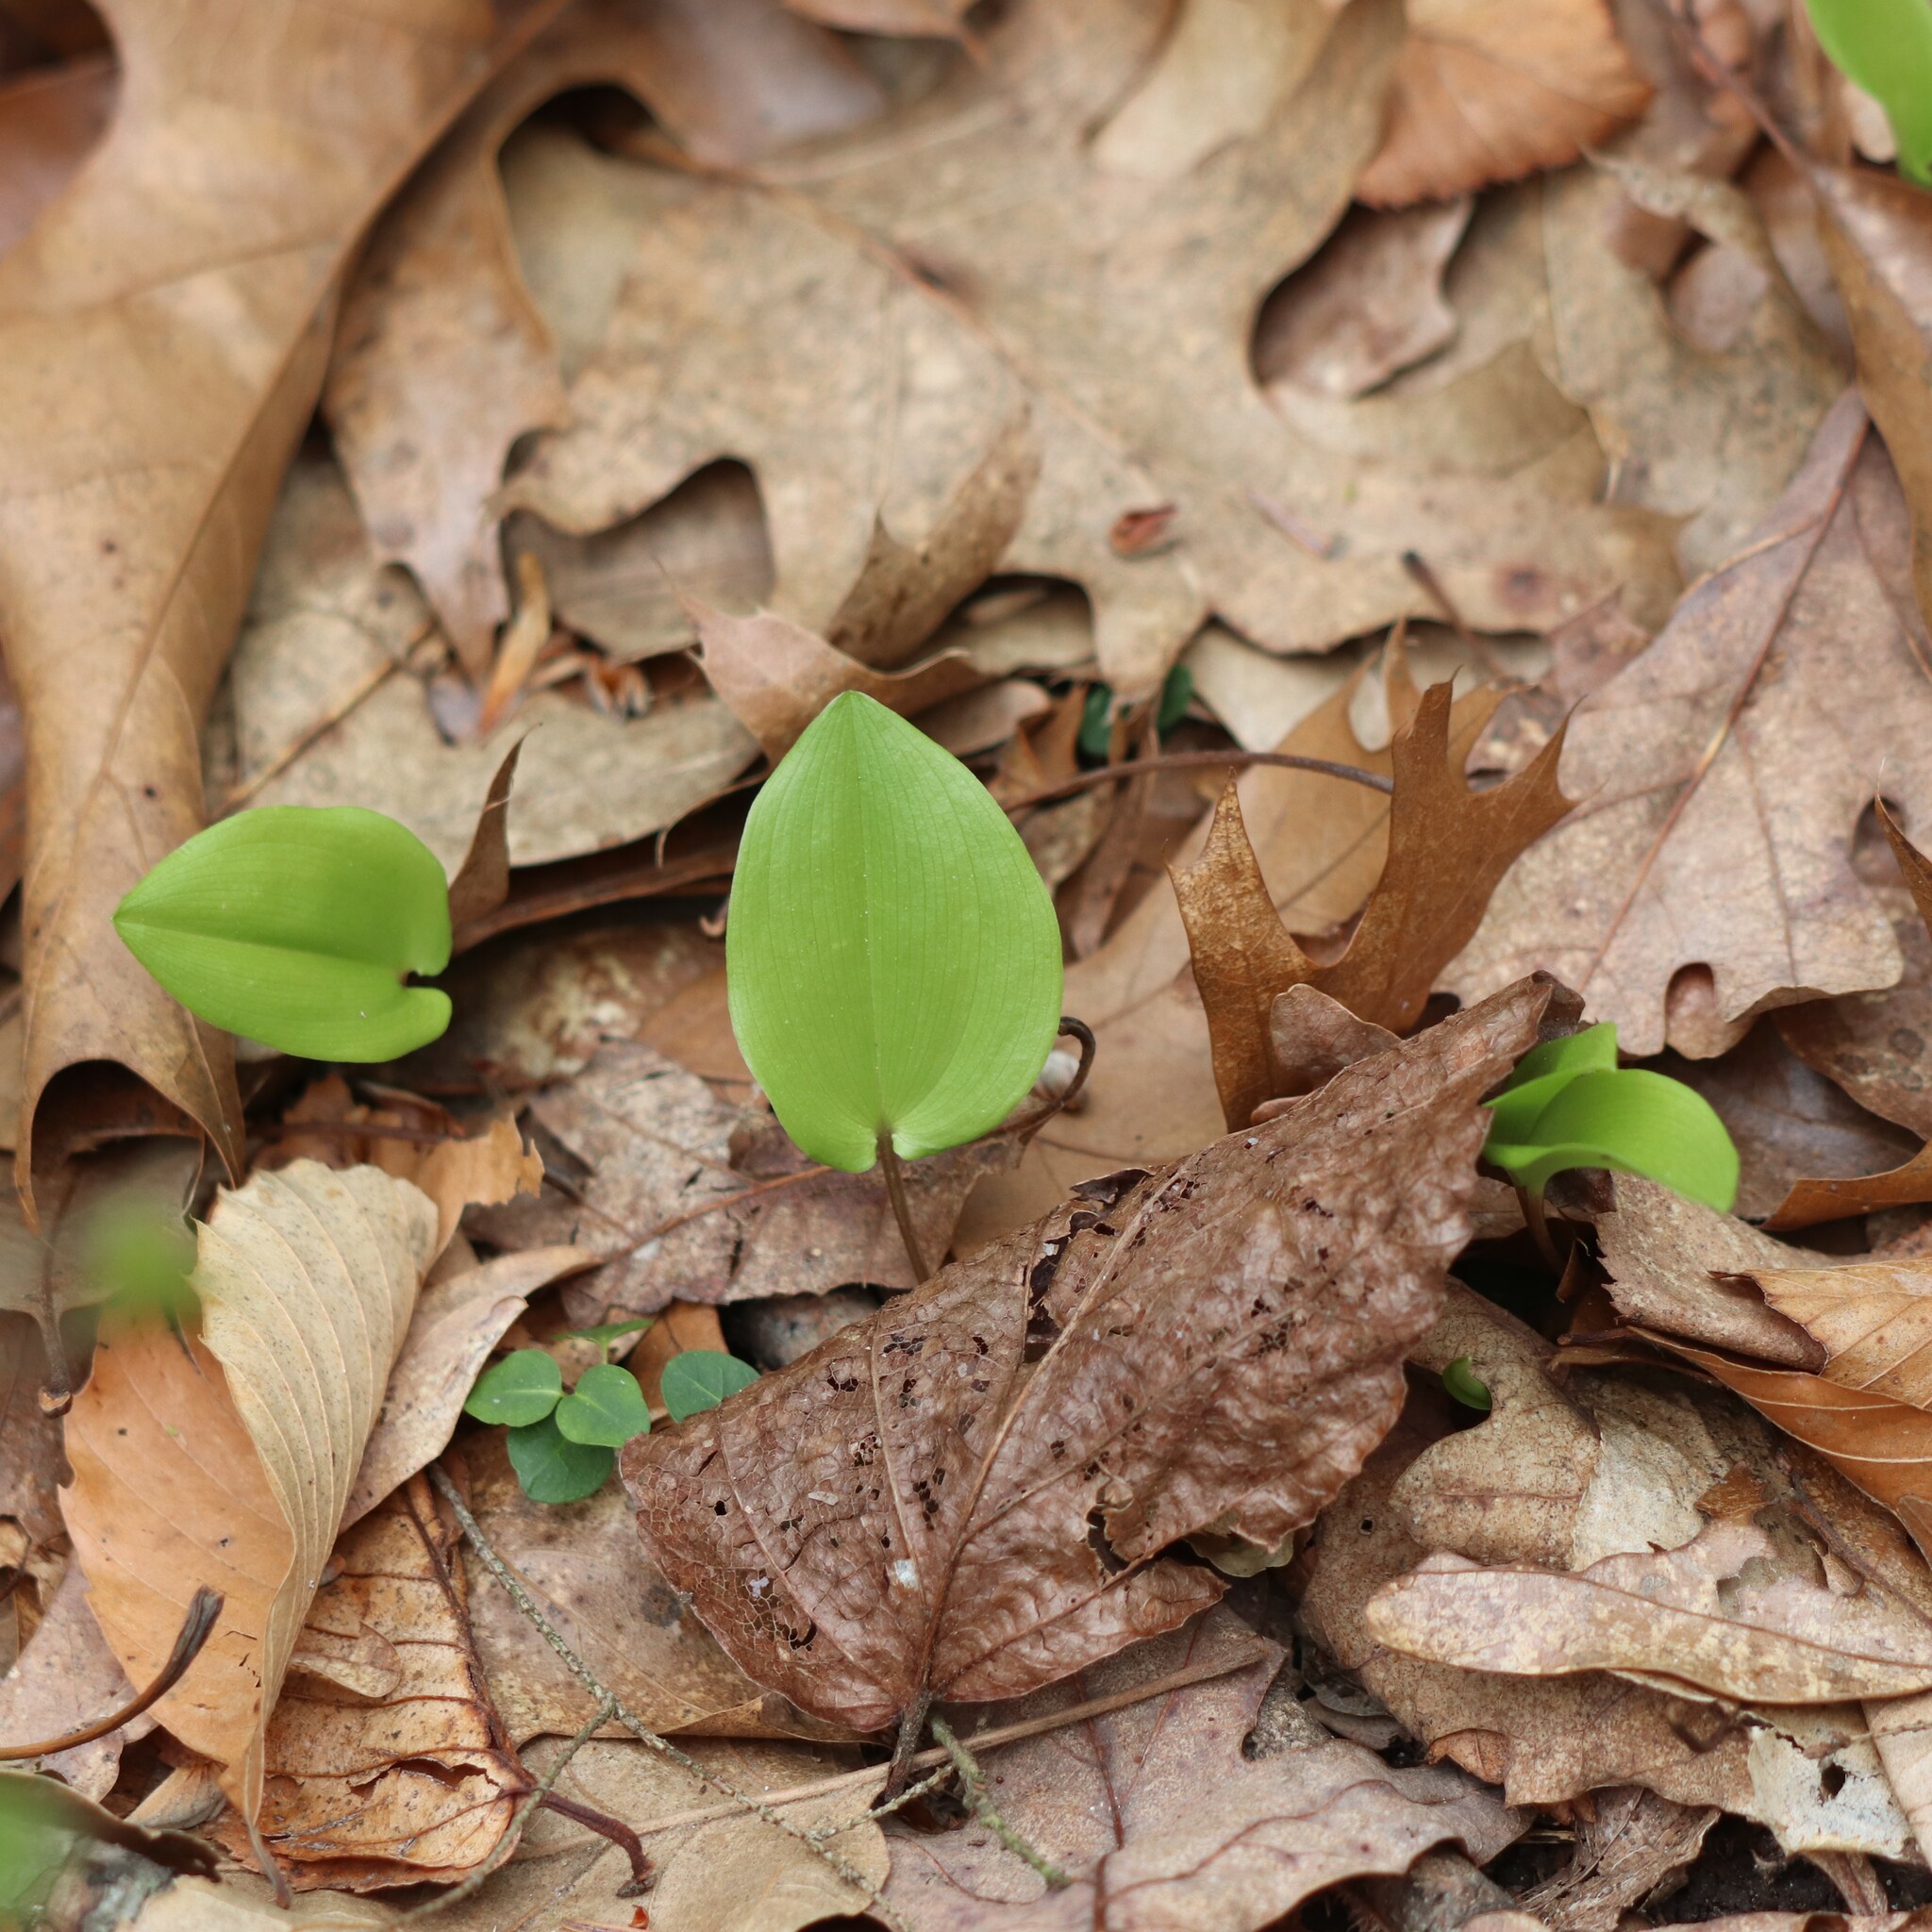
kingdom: Plantae
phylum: Tracheophyta
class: Liliopsida
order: Asparagales
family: Asparagaceae
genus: Maianthemum
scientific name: Maianthemum canadense
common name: False lily-of-the-valley
